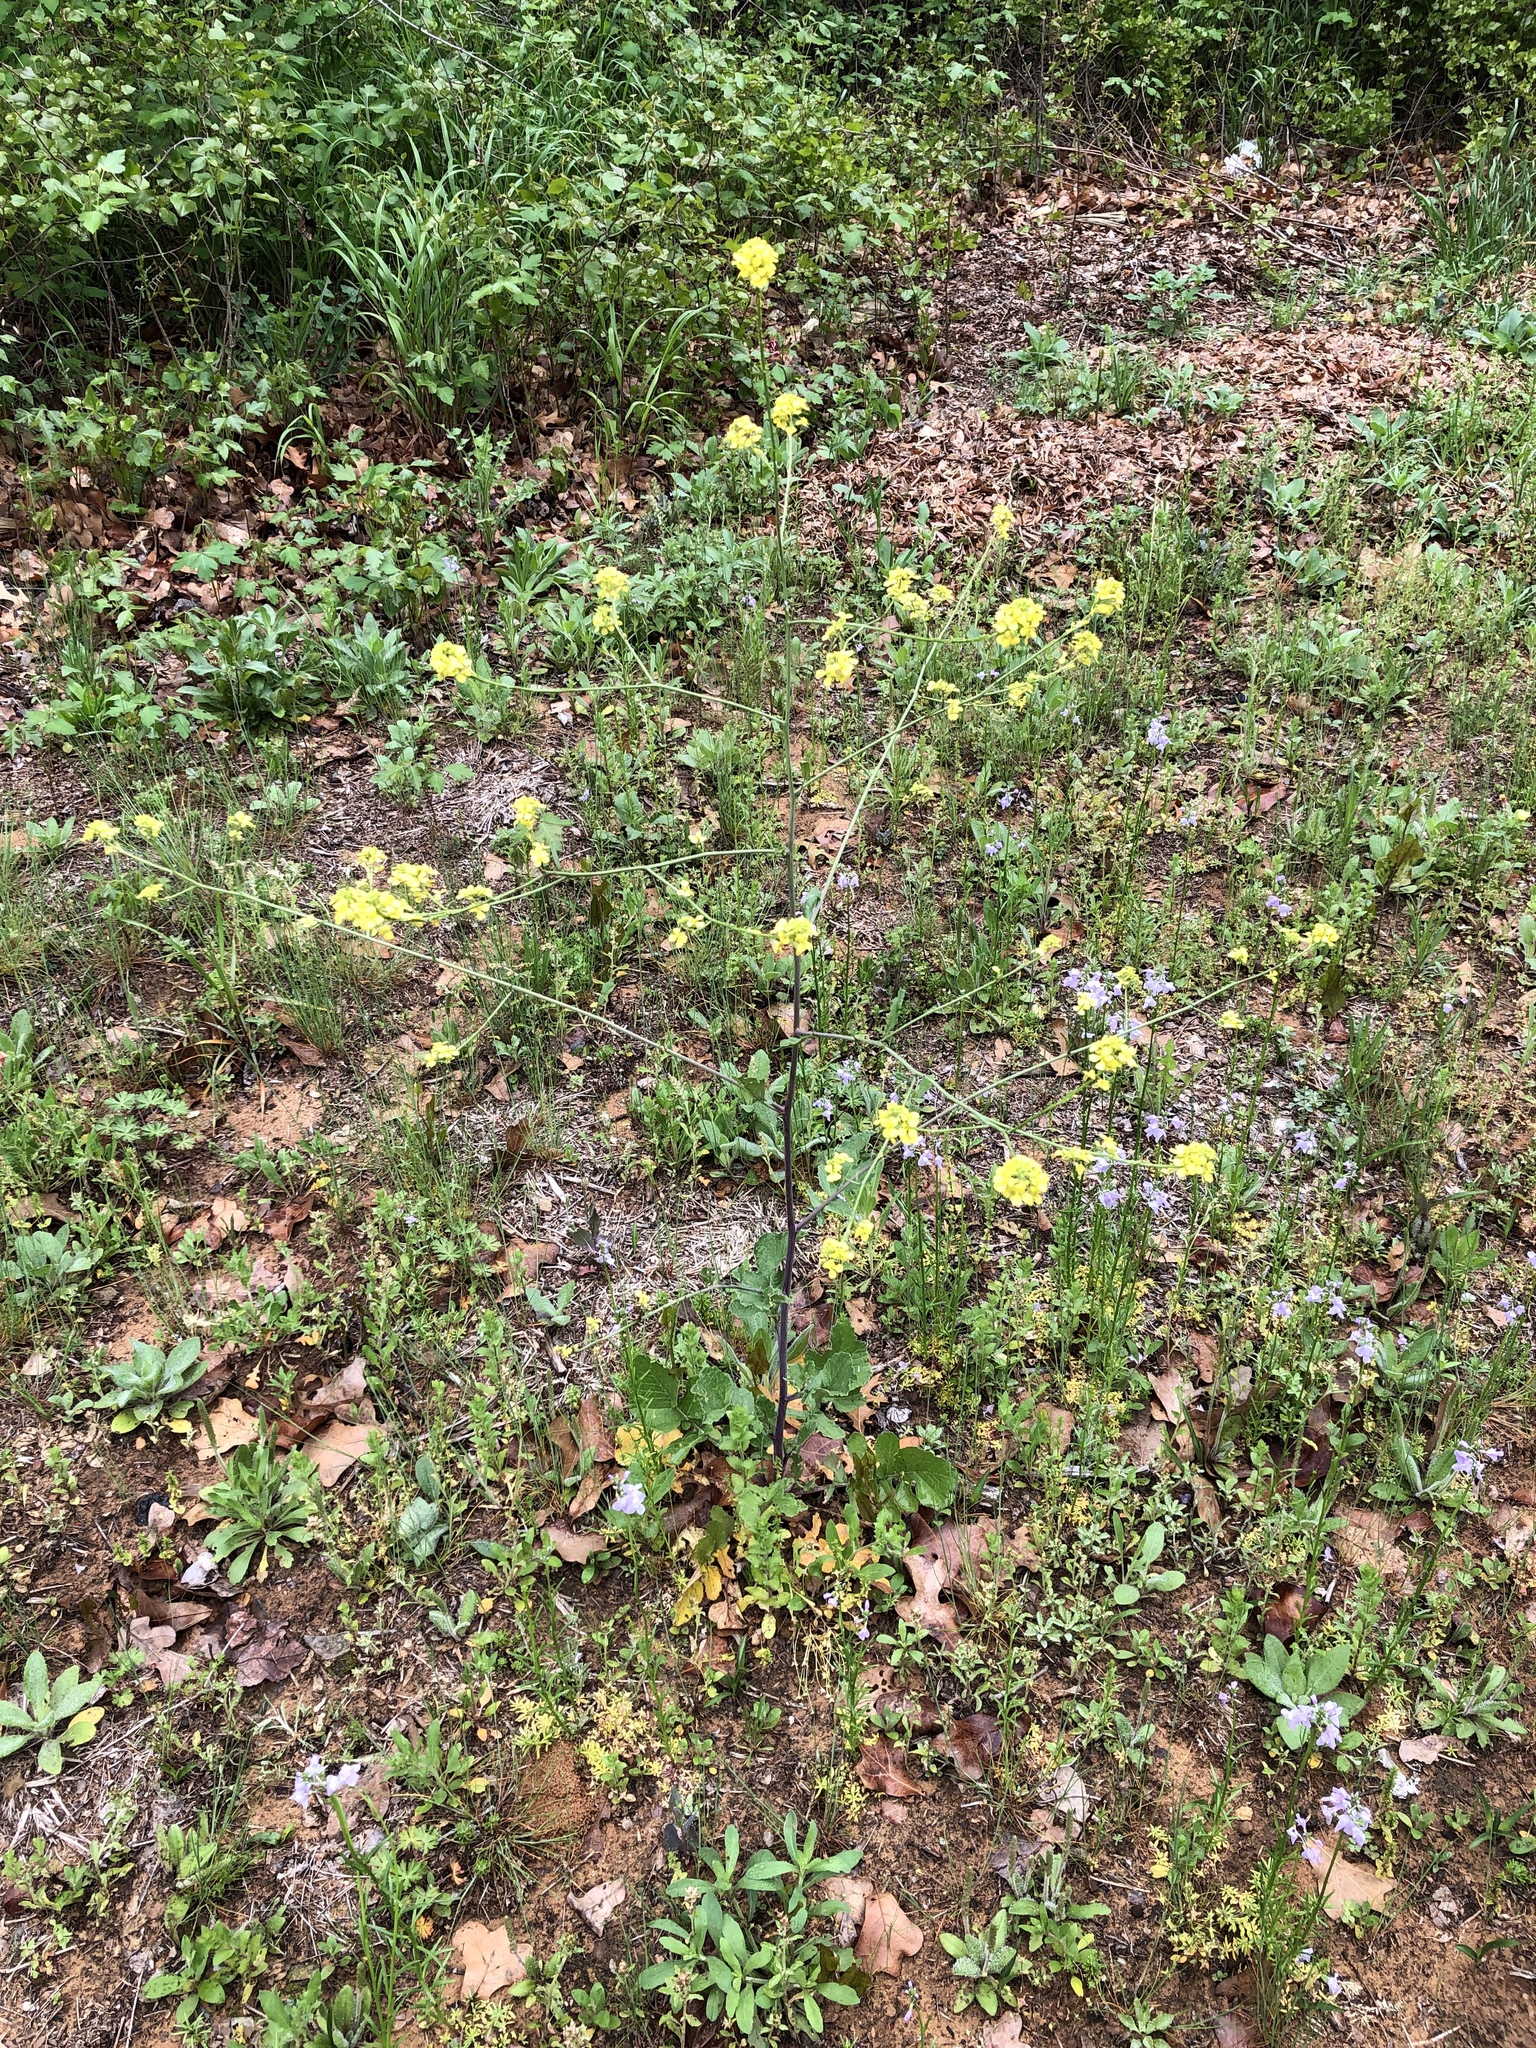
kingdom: Plantae
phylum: Tracheophyta
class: Magnoliopsida
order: Brassicales
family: Brassicaceae
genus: Rapistrum
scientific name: Rapistrum rugosum
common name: Annual bastardcabbage
